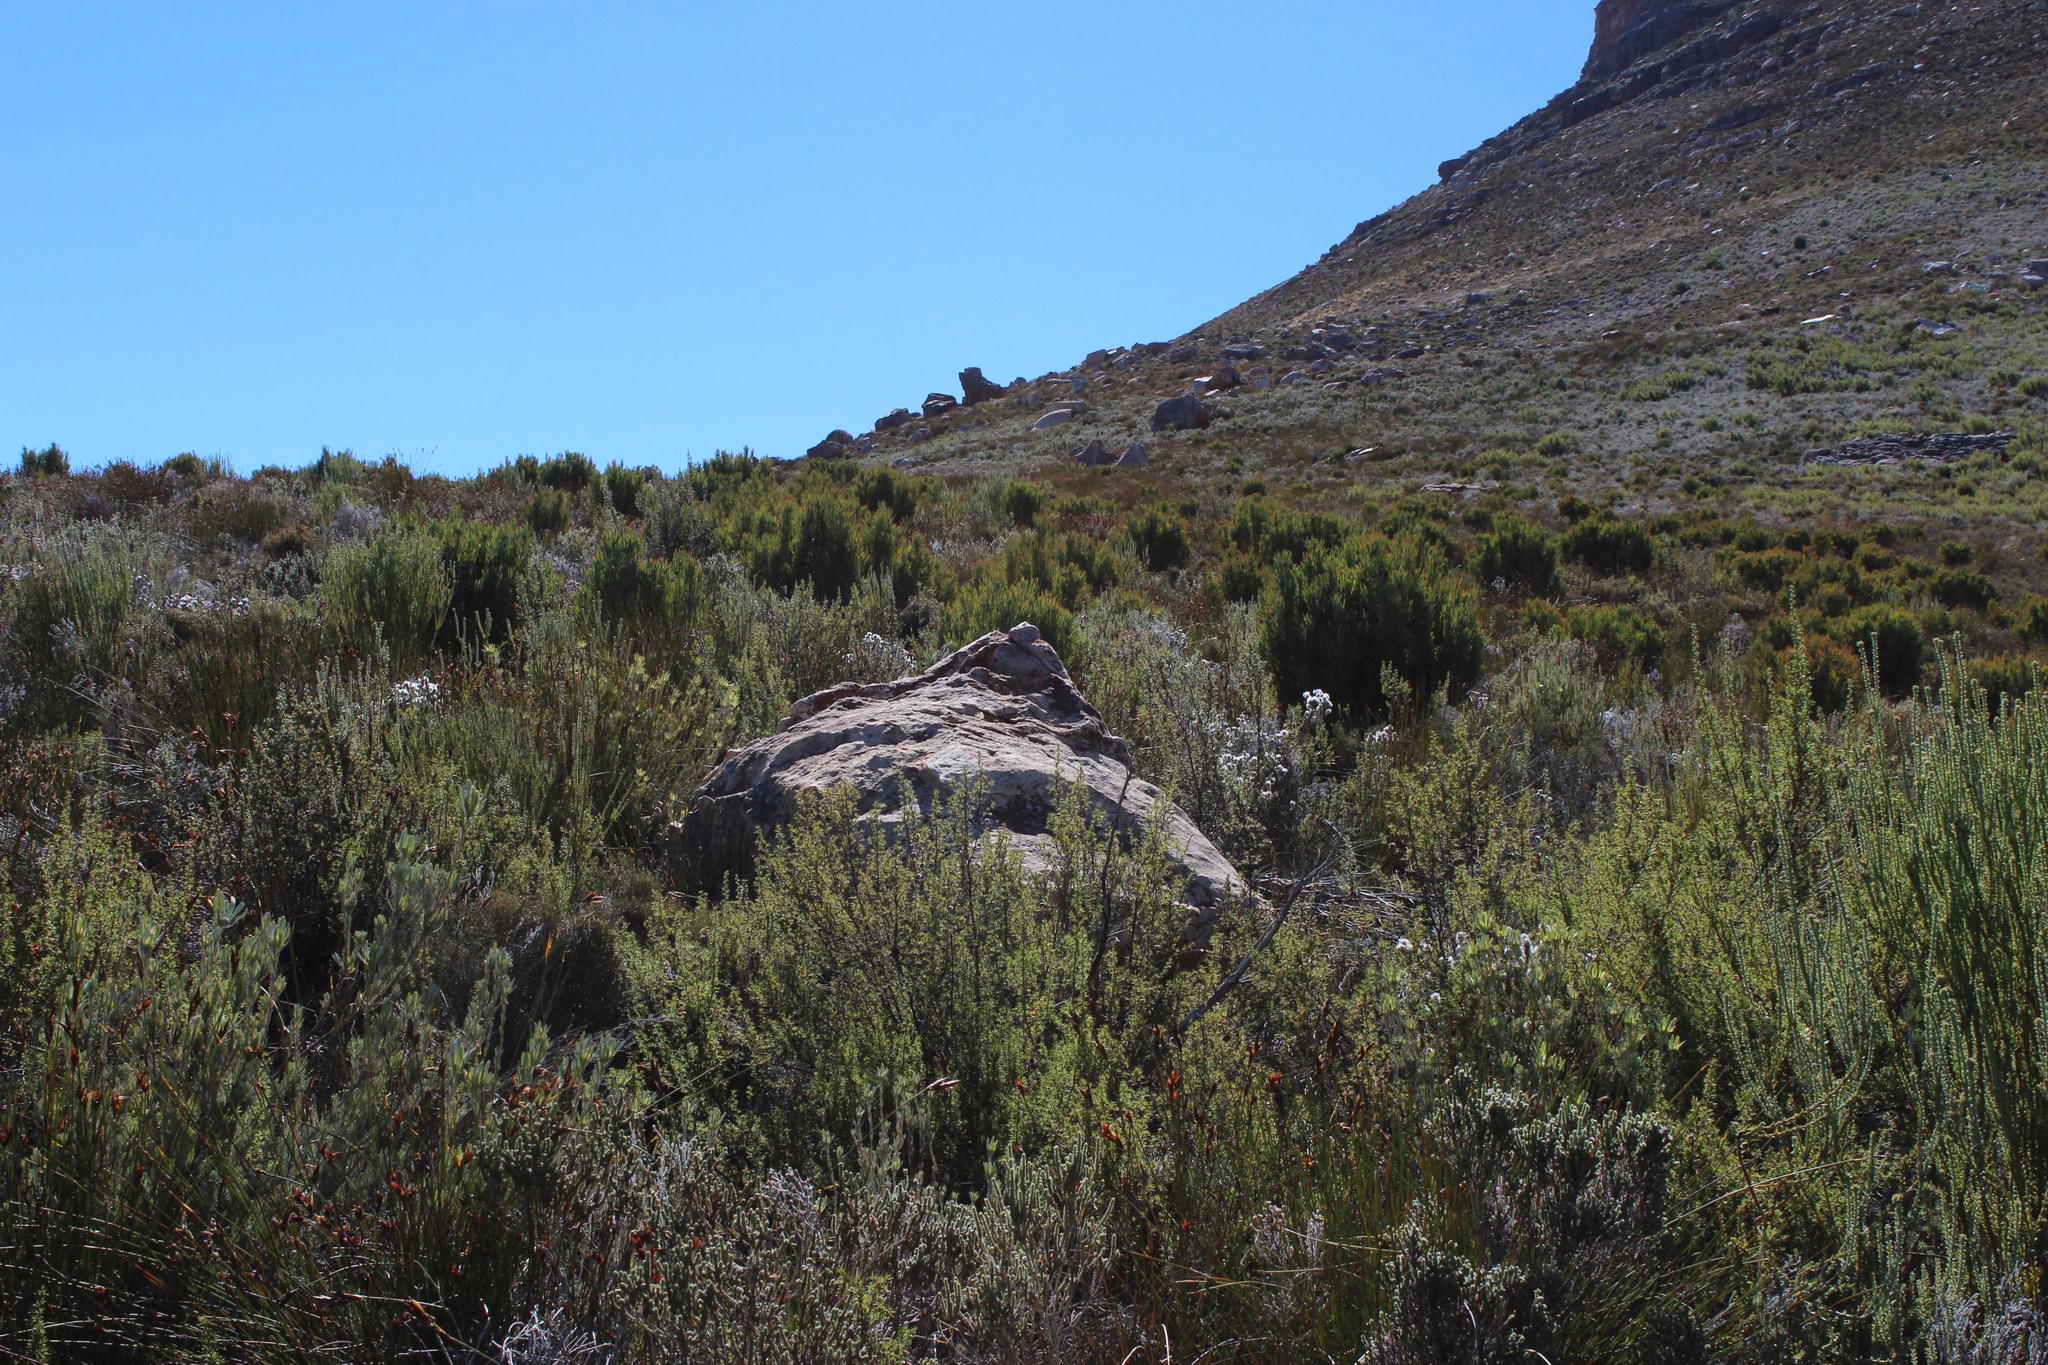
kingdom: Plantae
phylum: Tracheophyta
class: Magnoliopsida
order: Proteales
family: Proteaceae
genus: Protea
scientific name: Protea acuminata
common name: Black-rim sugarbush
